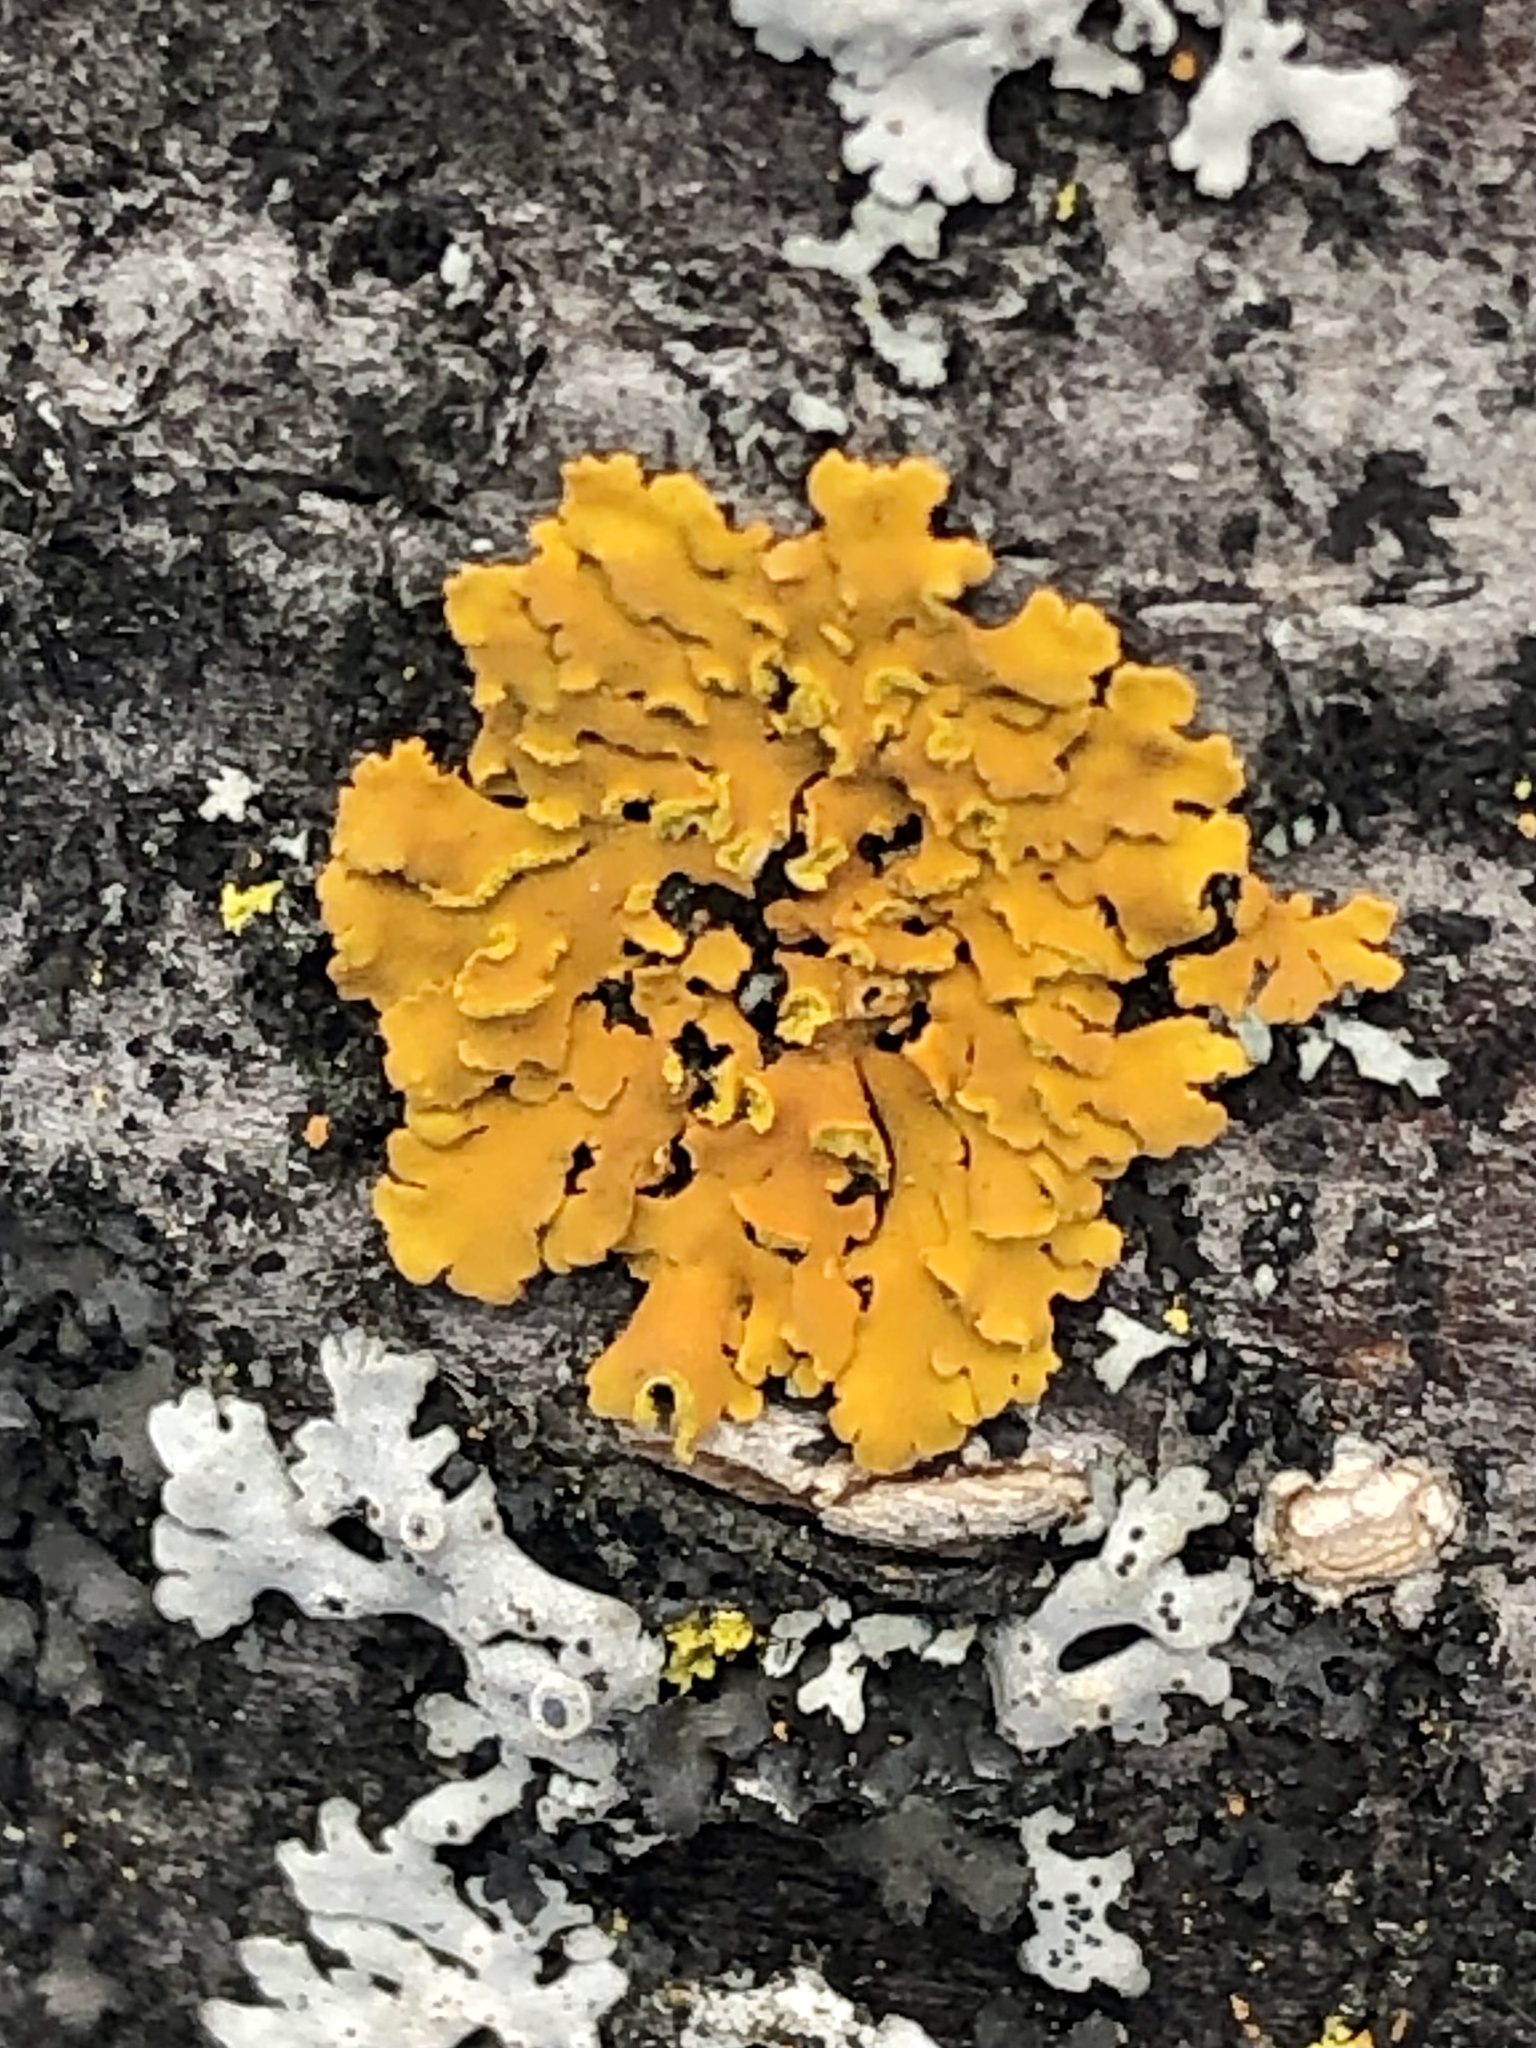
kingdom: Fungi
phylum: Ascomycota
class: Lecanoromycetes
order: Teloschistales
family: Teloschistaceae
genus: Oxneria
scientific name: Oxneria fallax
